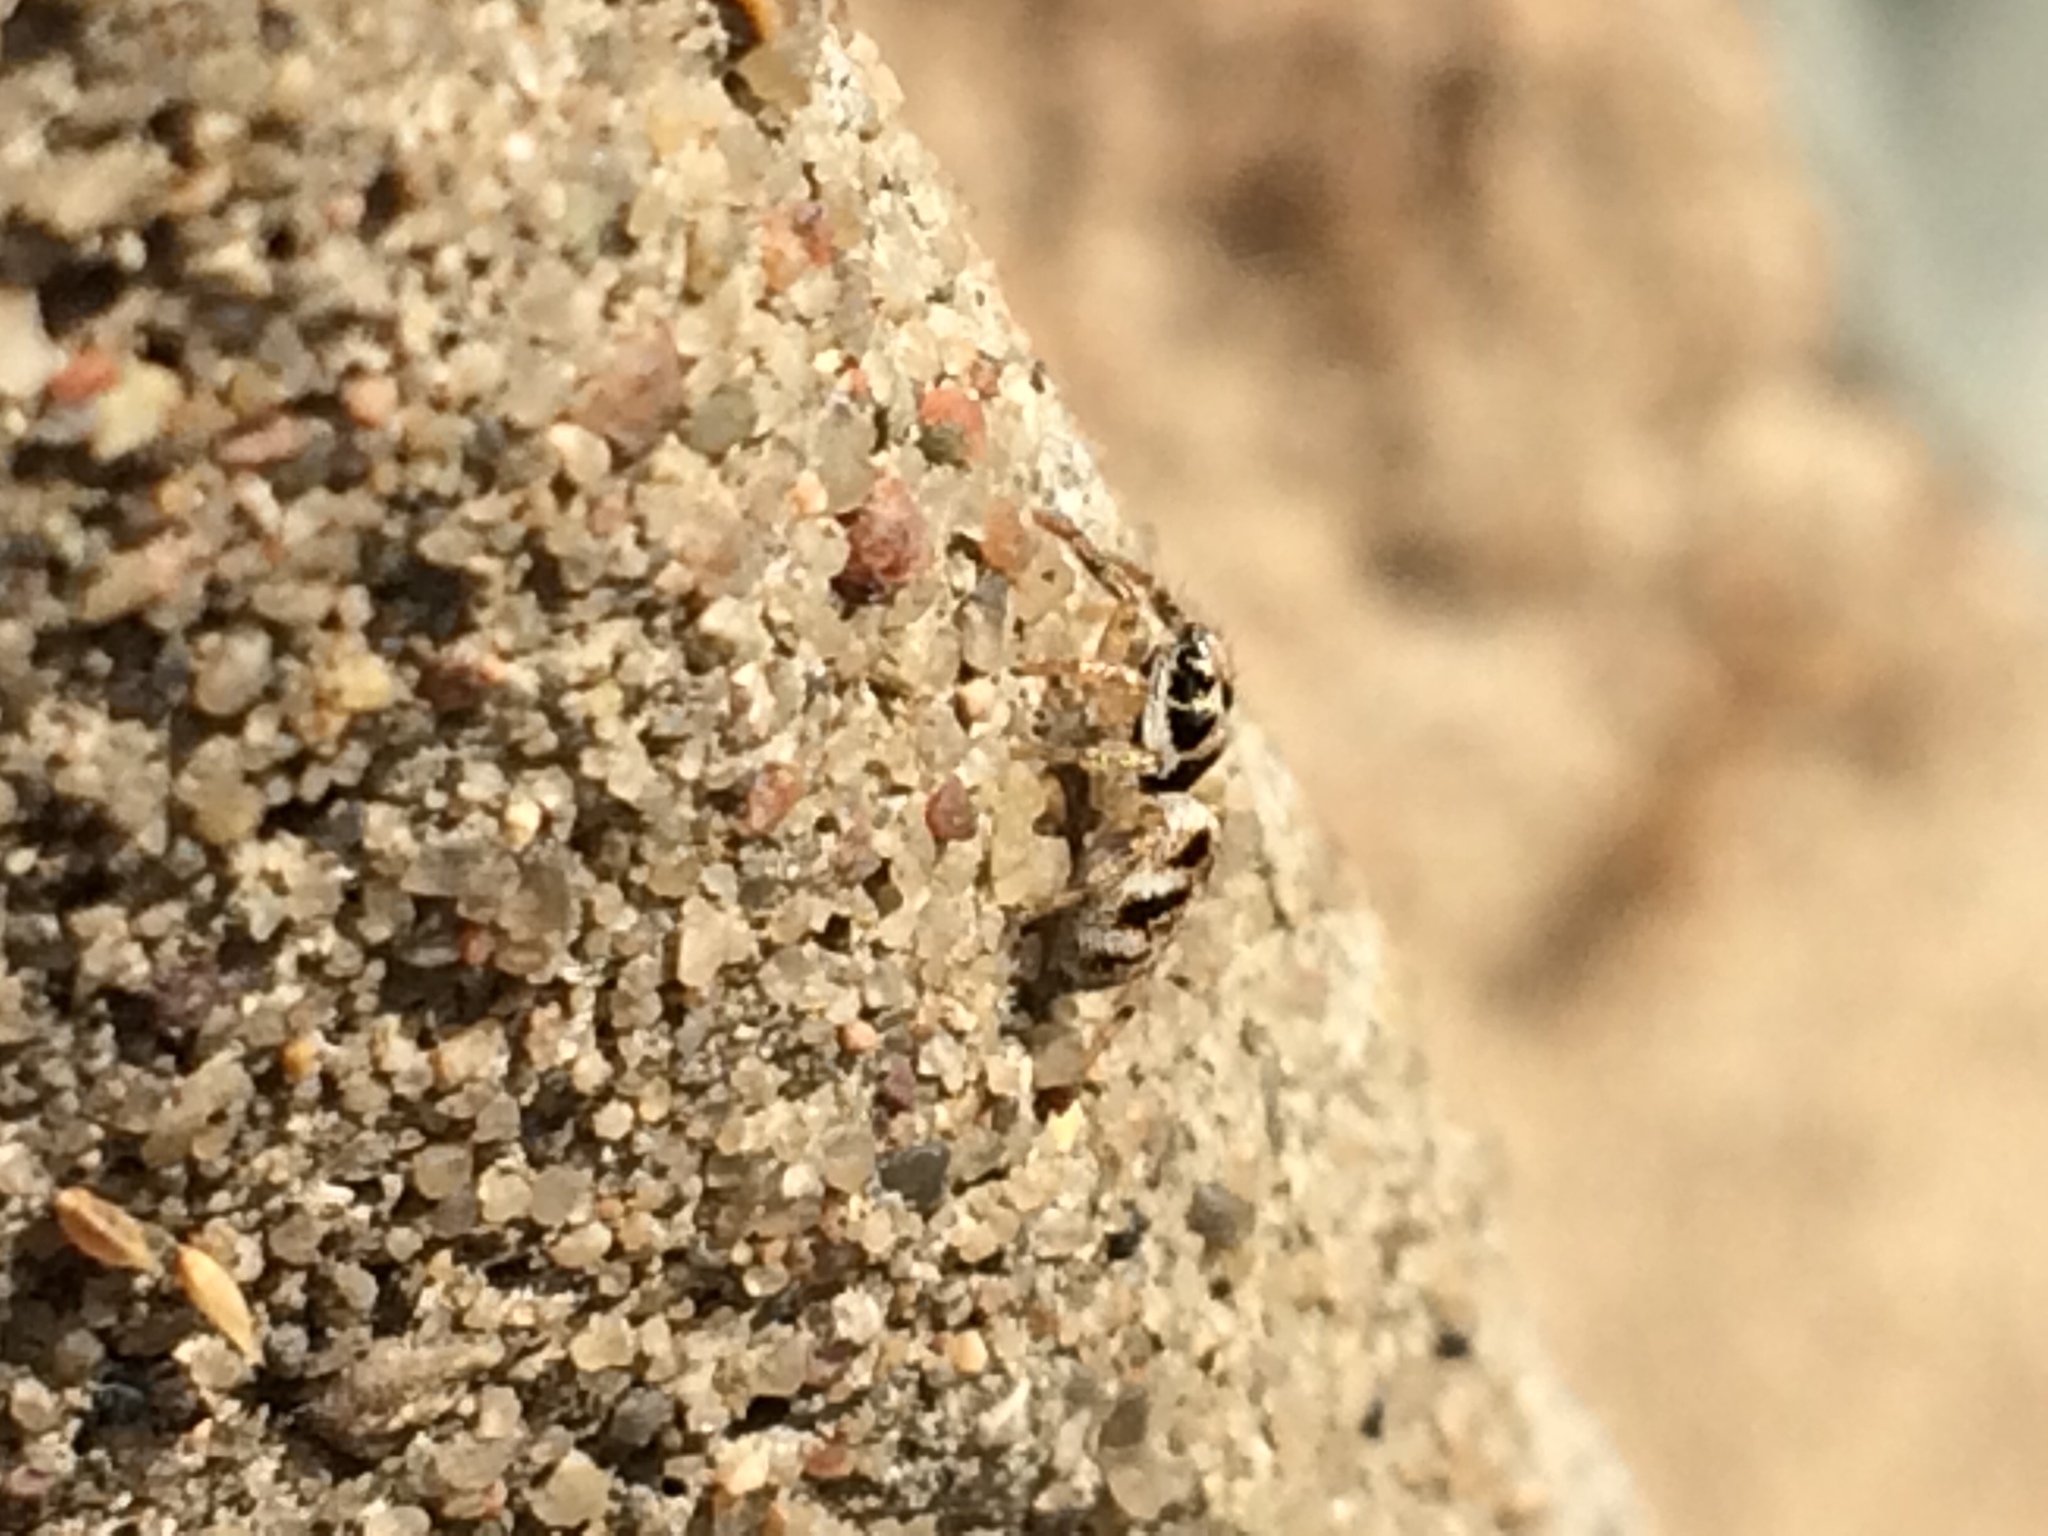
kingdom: Animalia
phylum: Arthropoda
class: Arachnida
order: Araneae
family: Salticidae
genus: Salticus
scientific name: Salticus scenicus
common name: Zebra jumper
